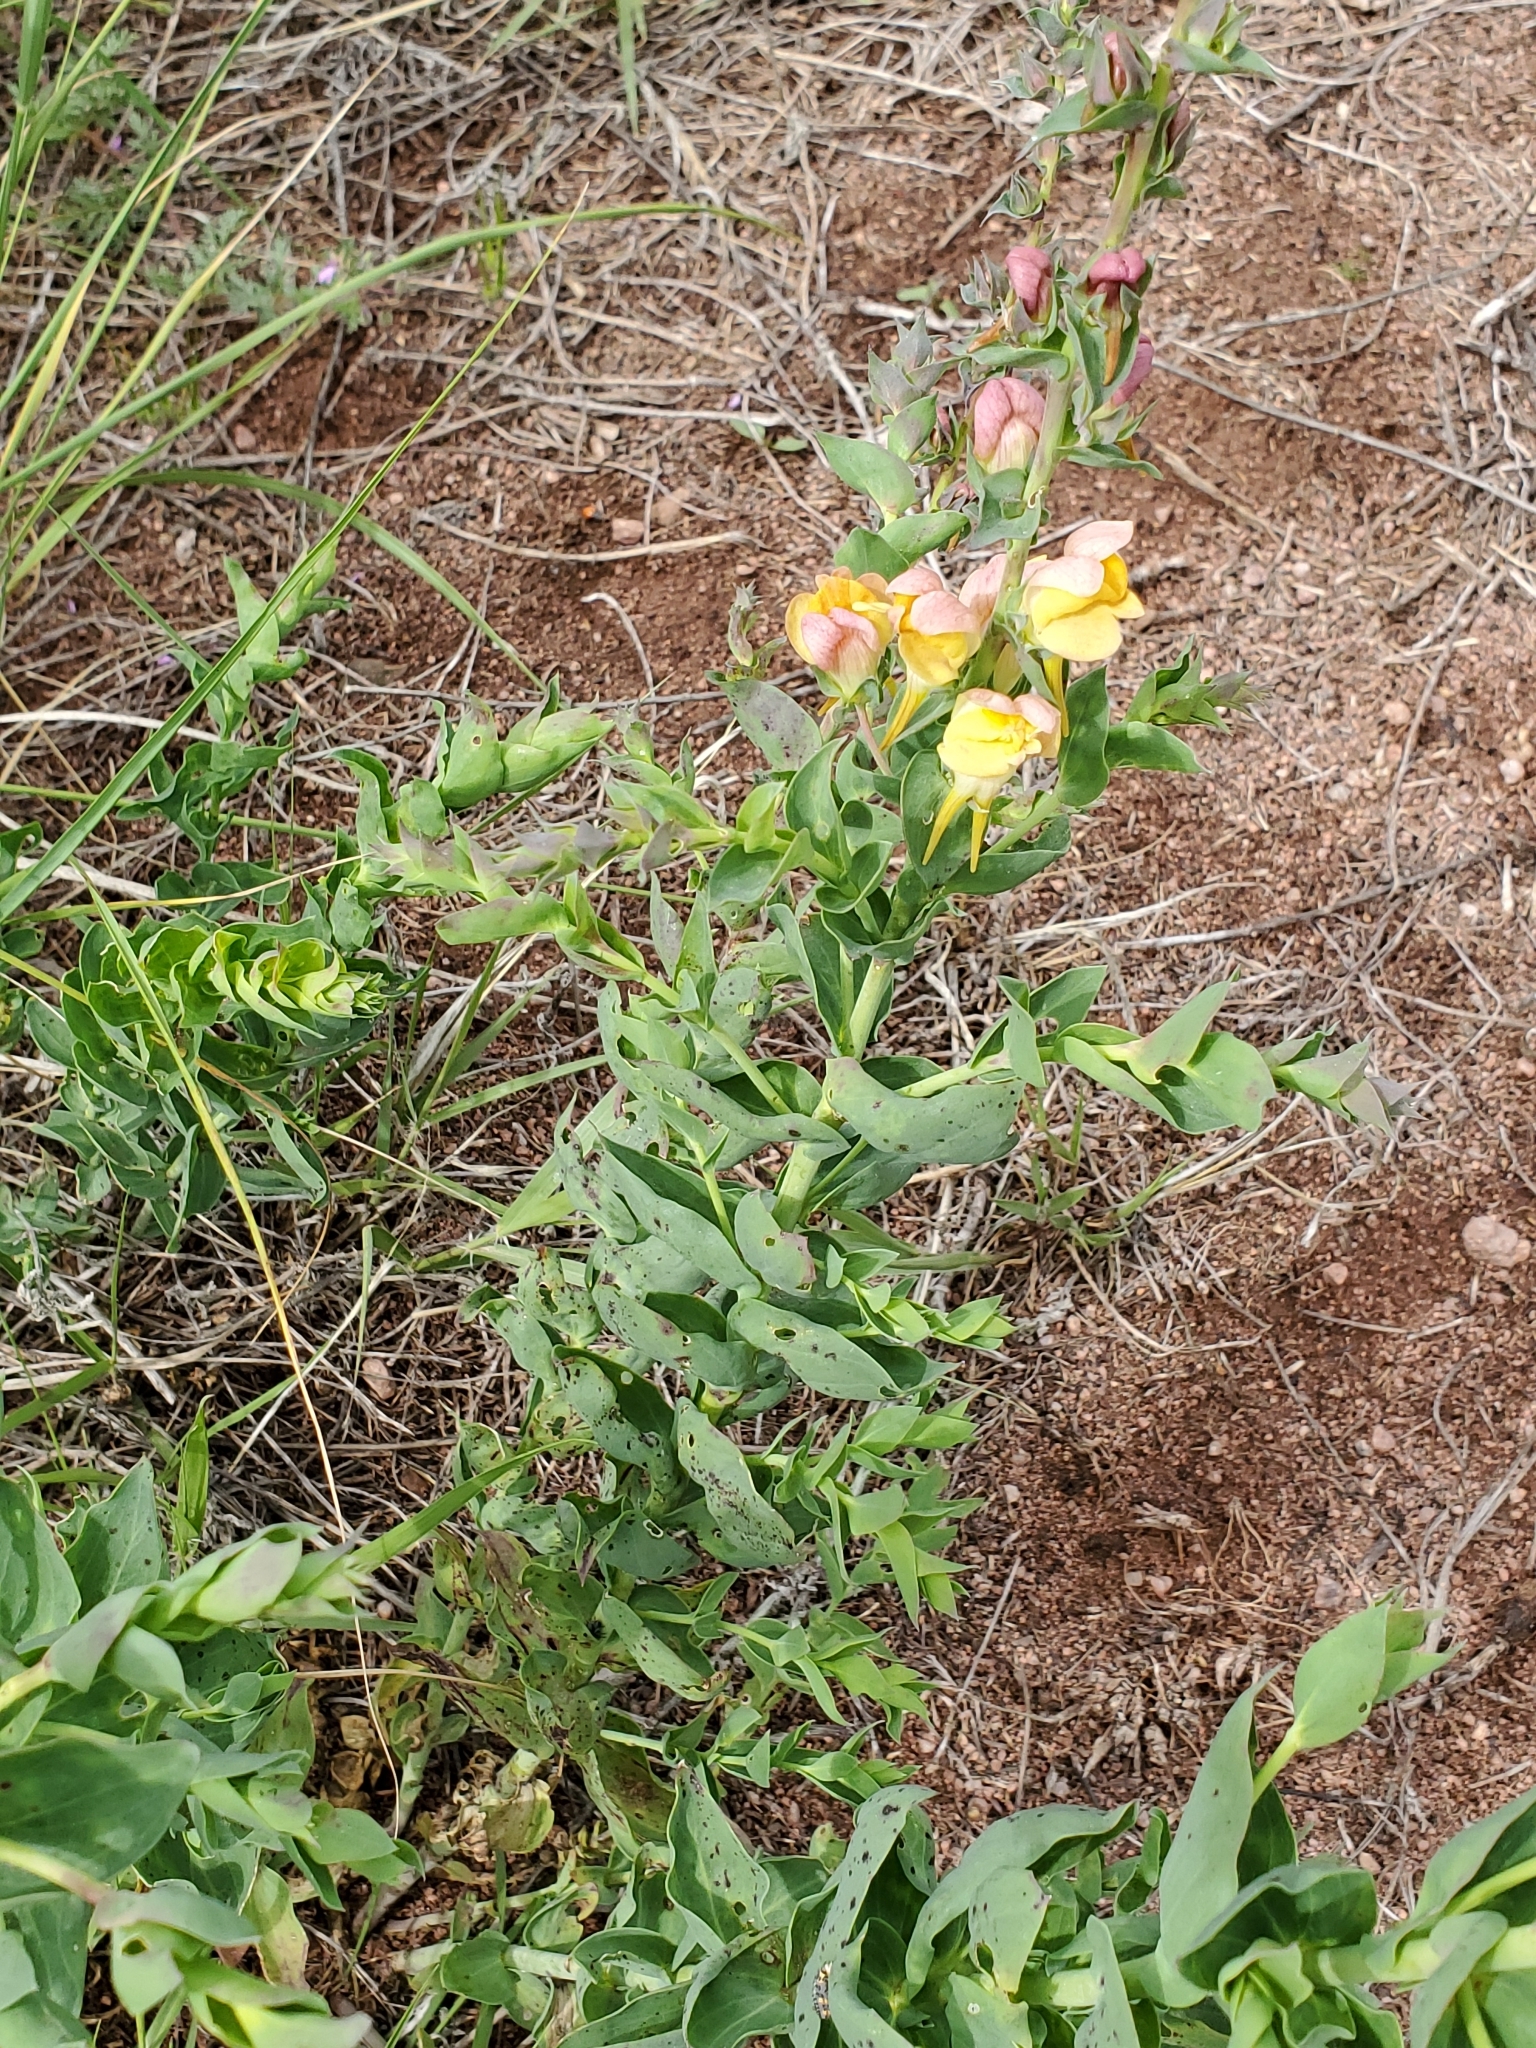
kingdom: Plantae
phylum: Tracheophyta
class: Magnoliopsida
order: Lamiales
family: Plantaginaceae
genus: Linaria
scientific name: Linaria dalmatica
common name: Dalmatian toadflax
